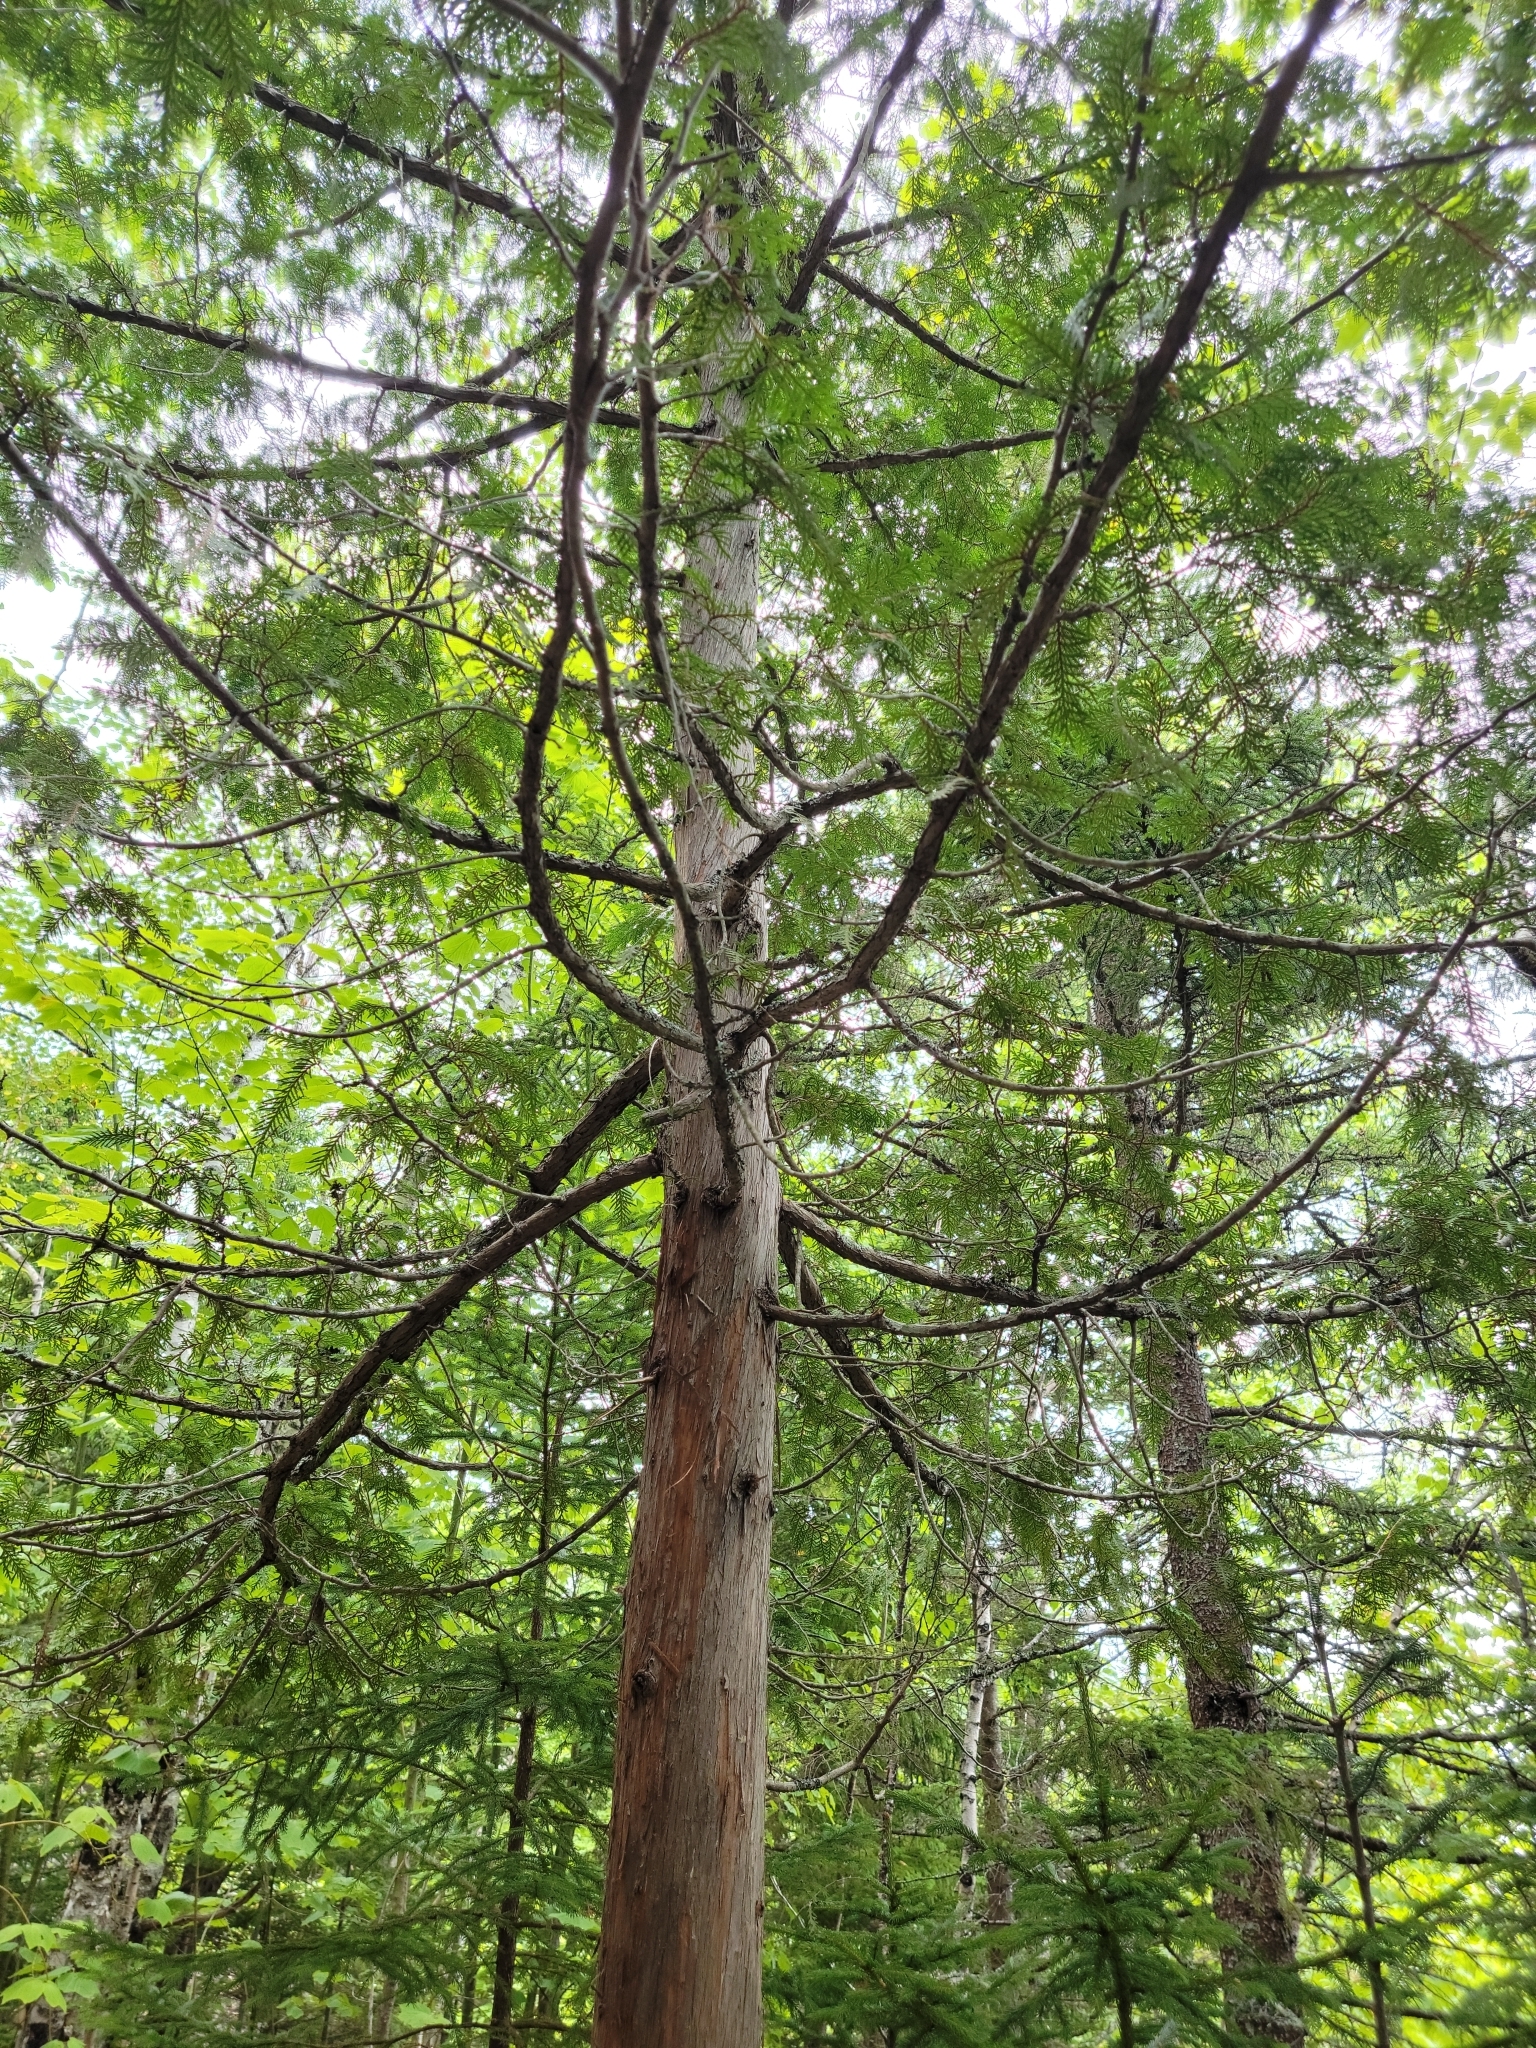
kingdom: Plantae
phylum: Tracheophyta
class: Pinopsida
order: Pinales
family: Cupressaceae
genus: Thuja
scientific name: Thuja occidentalis
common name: Northern white-cedar
